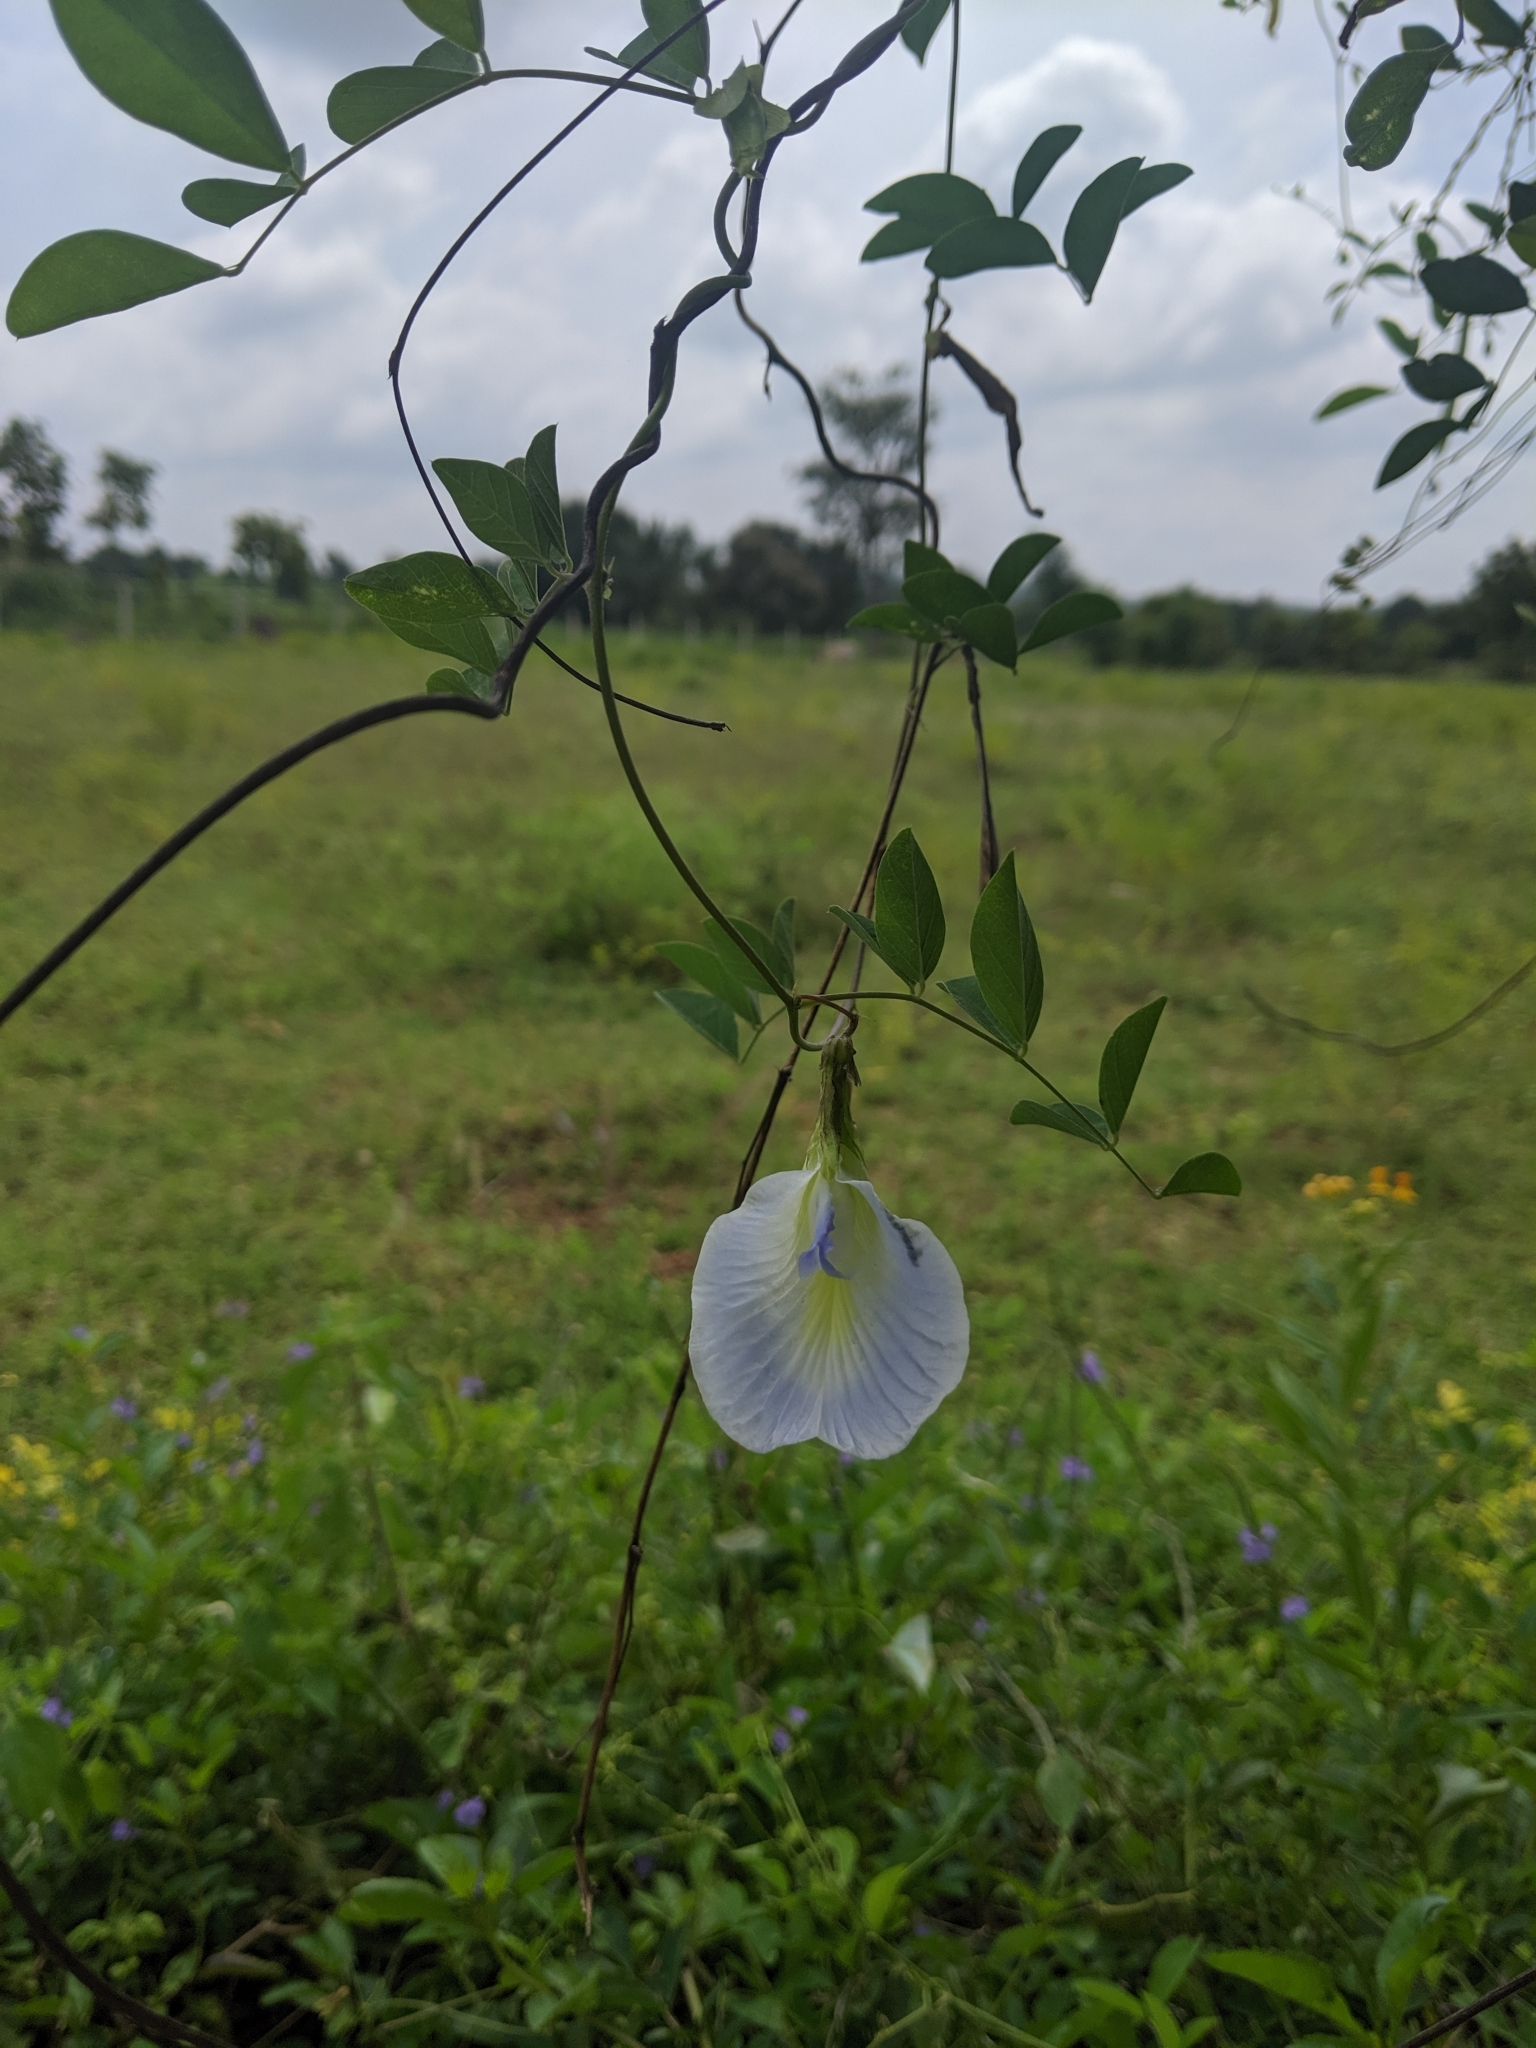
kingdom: Plantae
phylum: Tracheophyta
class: Magnoliopsida
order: Fabales
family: Fabaceae
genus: Clitoria
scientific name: Clitoria ternatea
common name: Asian pigeonwings
